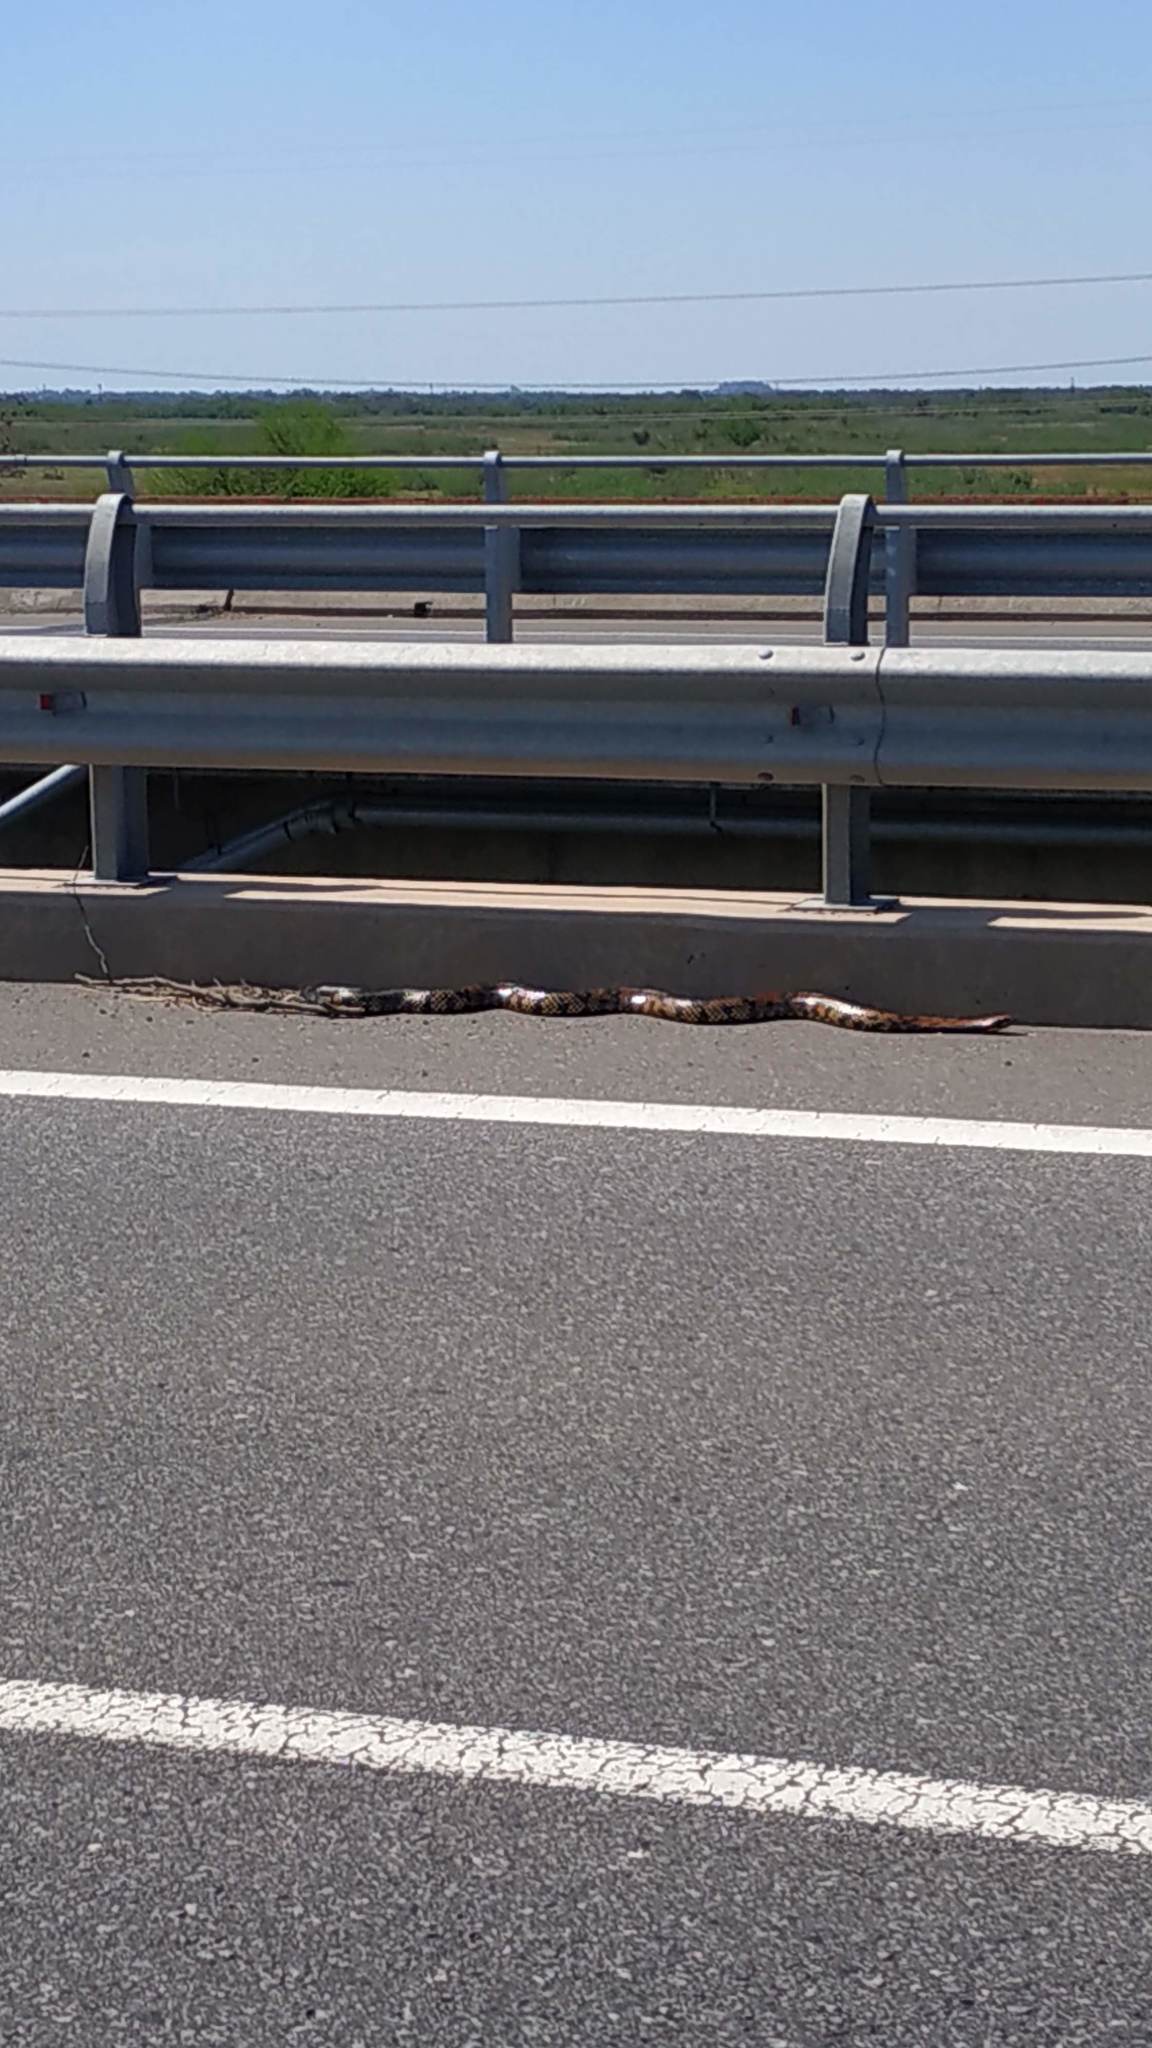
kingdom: Animalia
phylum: Chordata
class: Squamata
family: Colubridae
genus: Hydrodynastes
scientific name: Hydrodynastes gigas
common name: False water cobra
